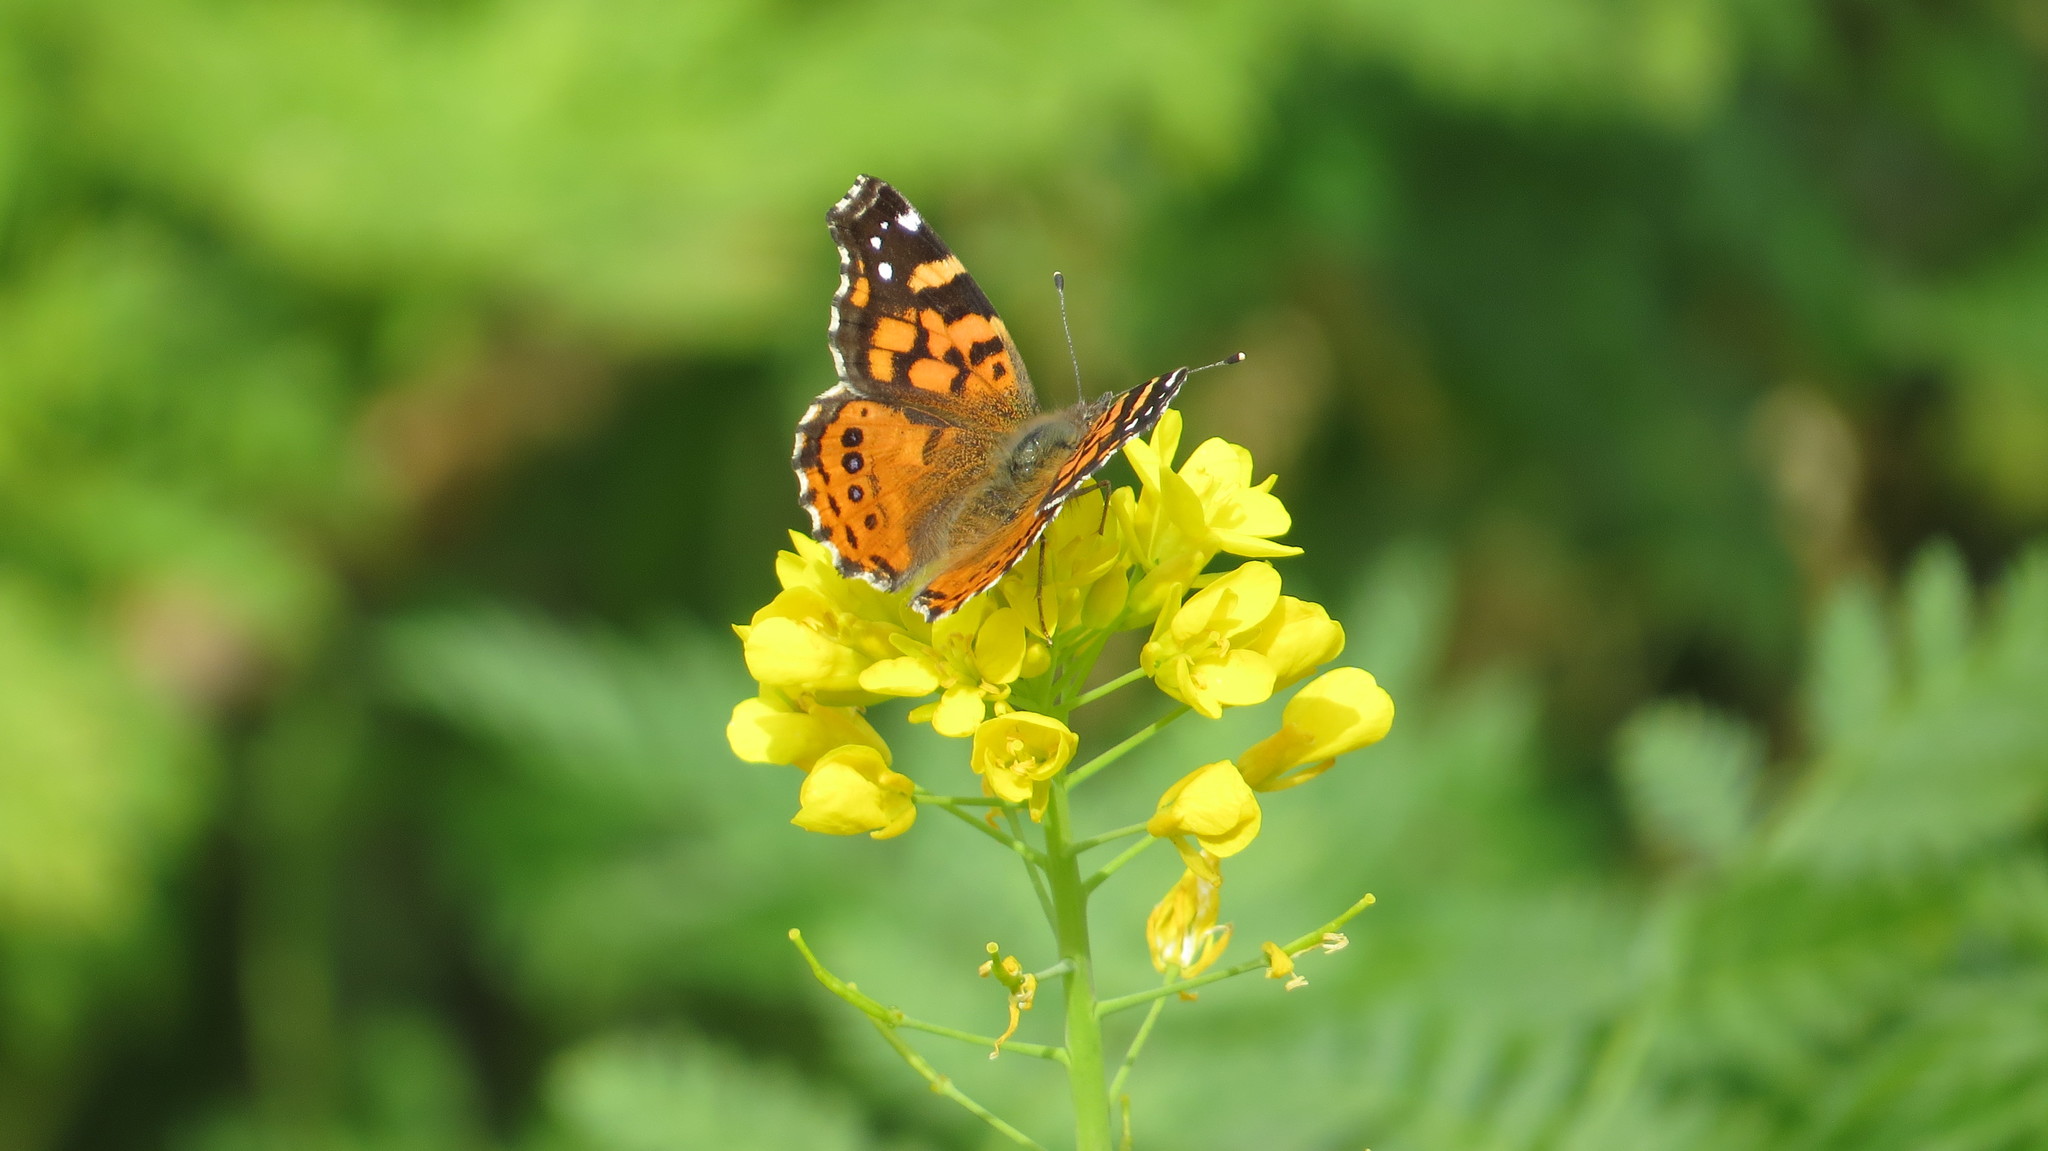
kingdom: Animalia
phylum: Arthropoda
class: Insecta
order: Lepidoptera
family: Nymphalidae
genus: Vanessa
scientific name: Vanessa carye
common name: Subtropical lady
